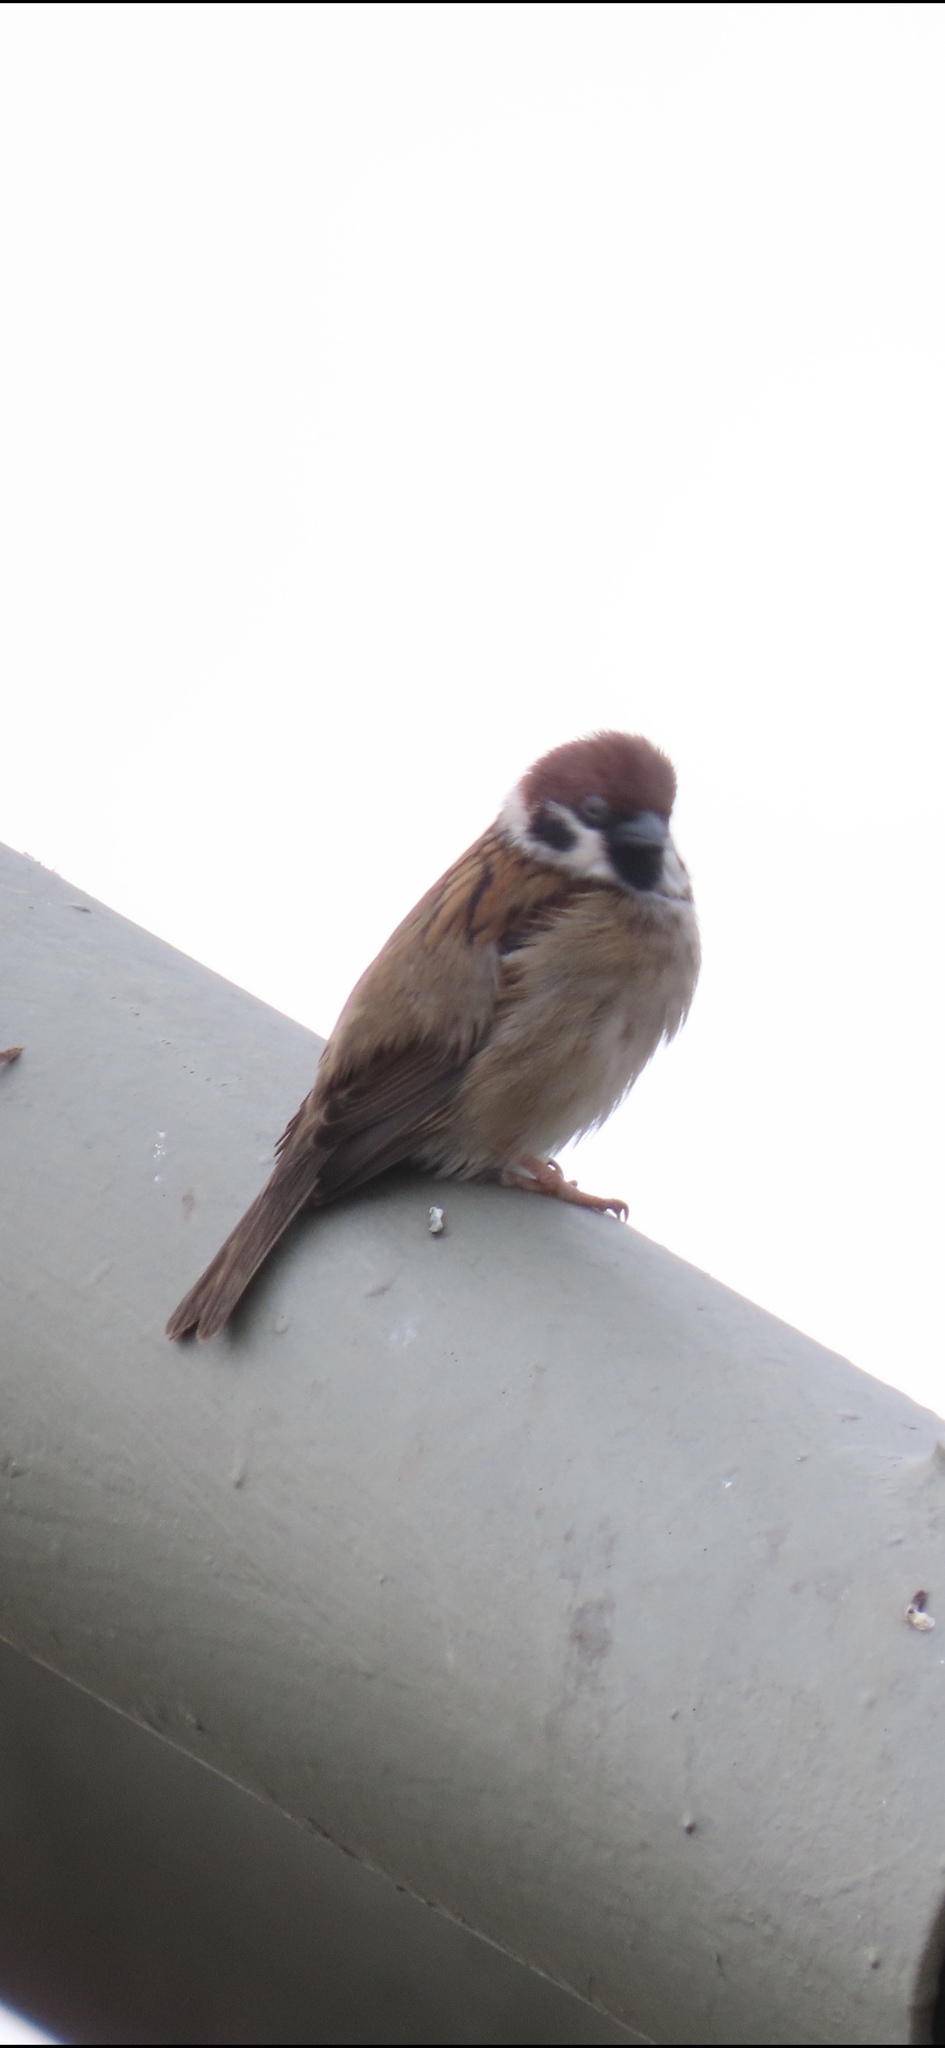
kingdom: Animalia
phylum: Chordata
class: Aves
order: Passeriformes
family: Passeridae
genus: Passer
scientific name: Passer montanus
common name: Eurasian tree sparrow
